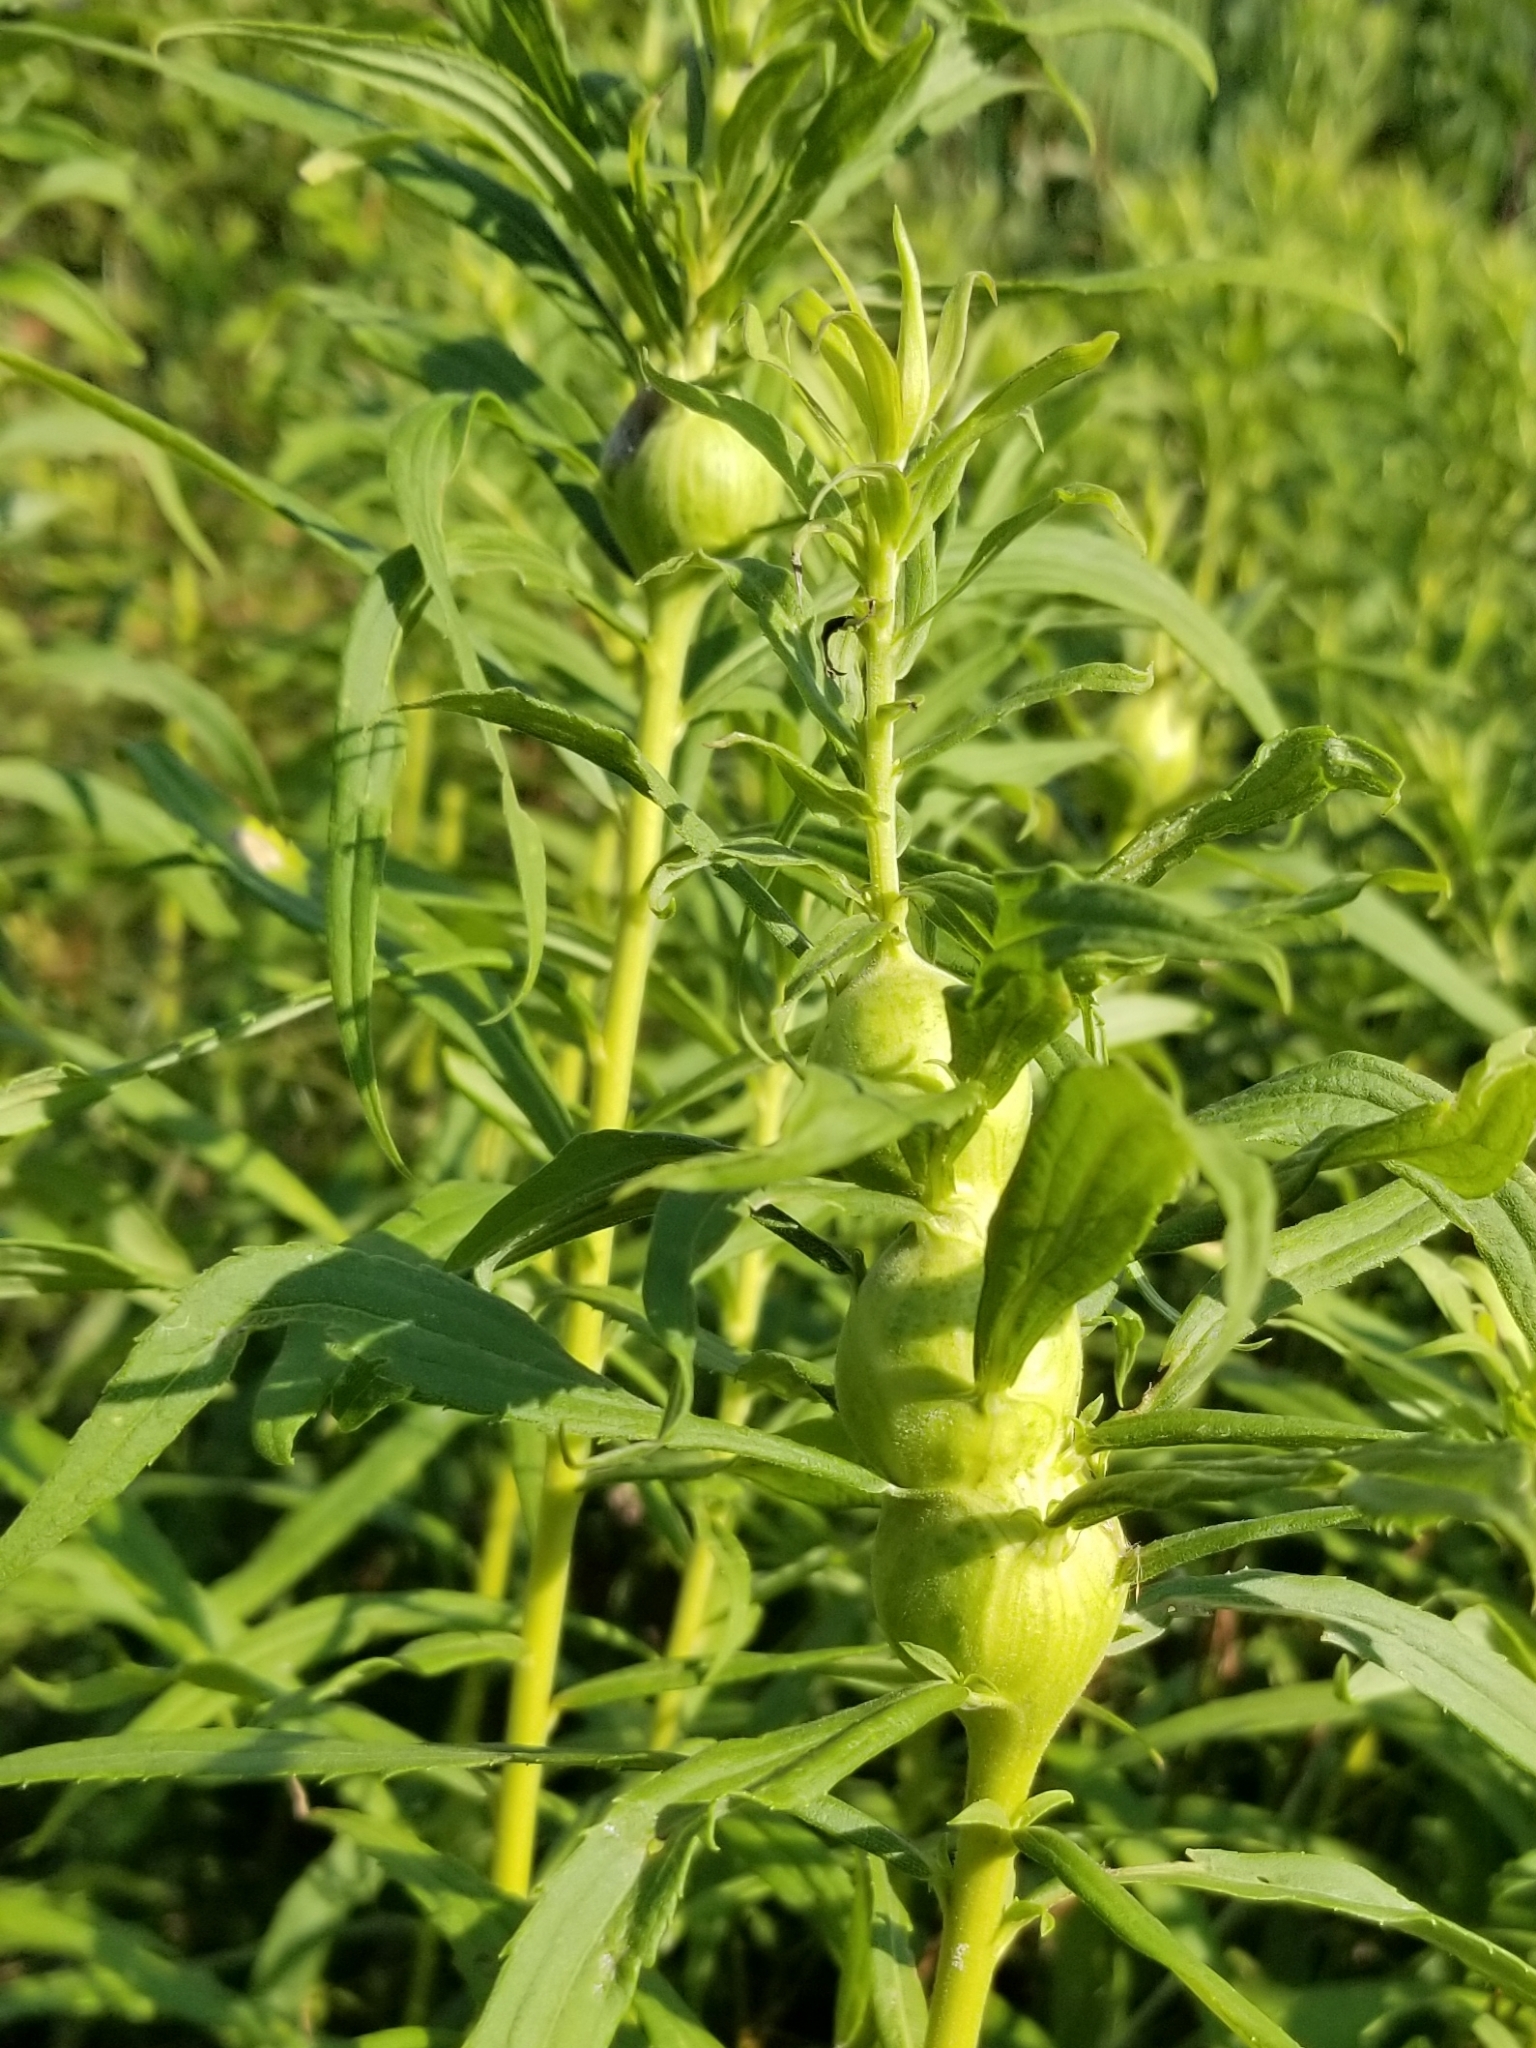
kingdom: Animalia
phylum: Arthropoda
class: Insecta
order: Diptera
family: Tephritidae
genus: Eurosta
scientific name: Eurosta solidaginis
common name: Goldenrod gall fly
